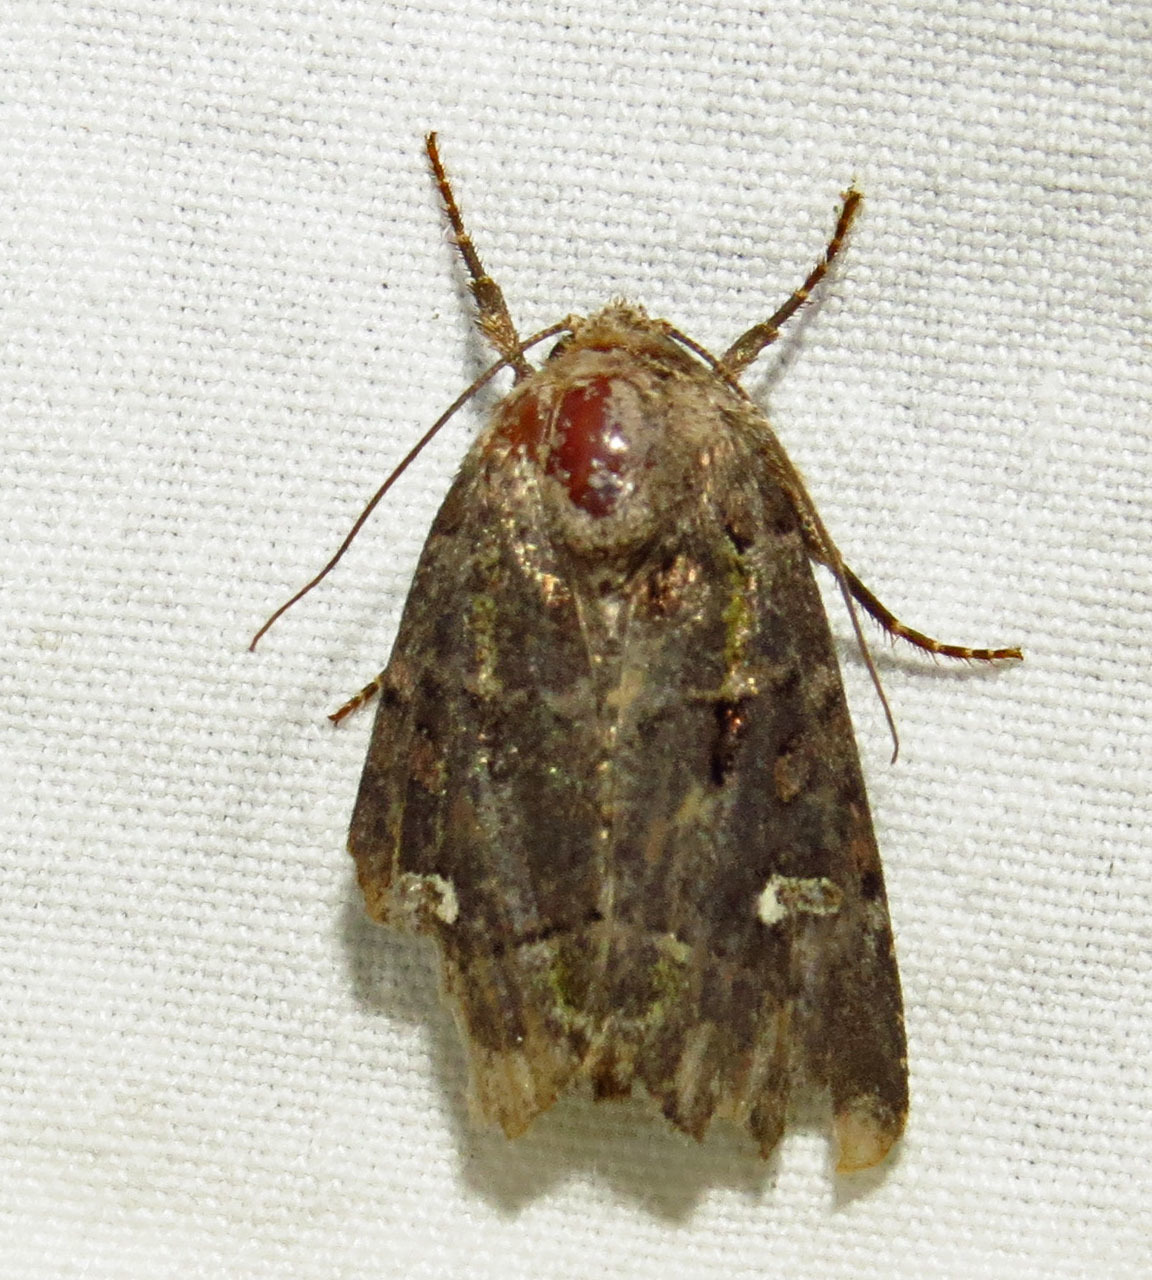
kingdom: Animalia
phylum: Arthropoda
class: Insecta
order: Lepidoptera
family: Noctuidae
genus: Lacinipolia
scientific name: Lacinipolia renigera
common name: Kidney-spotted minor
